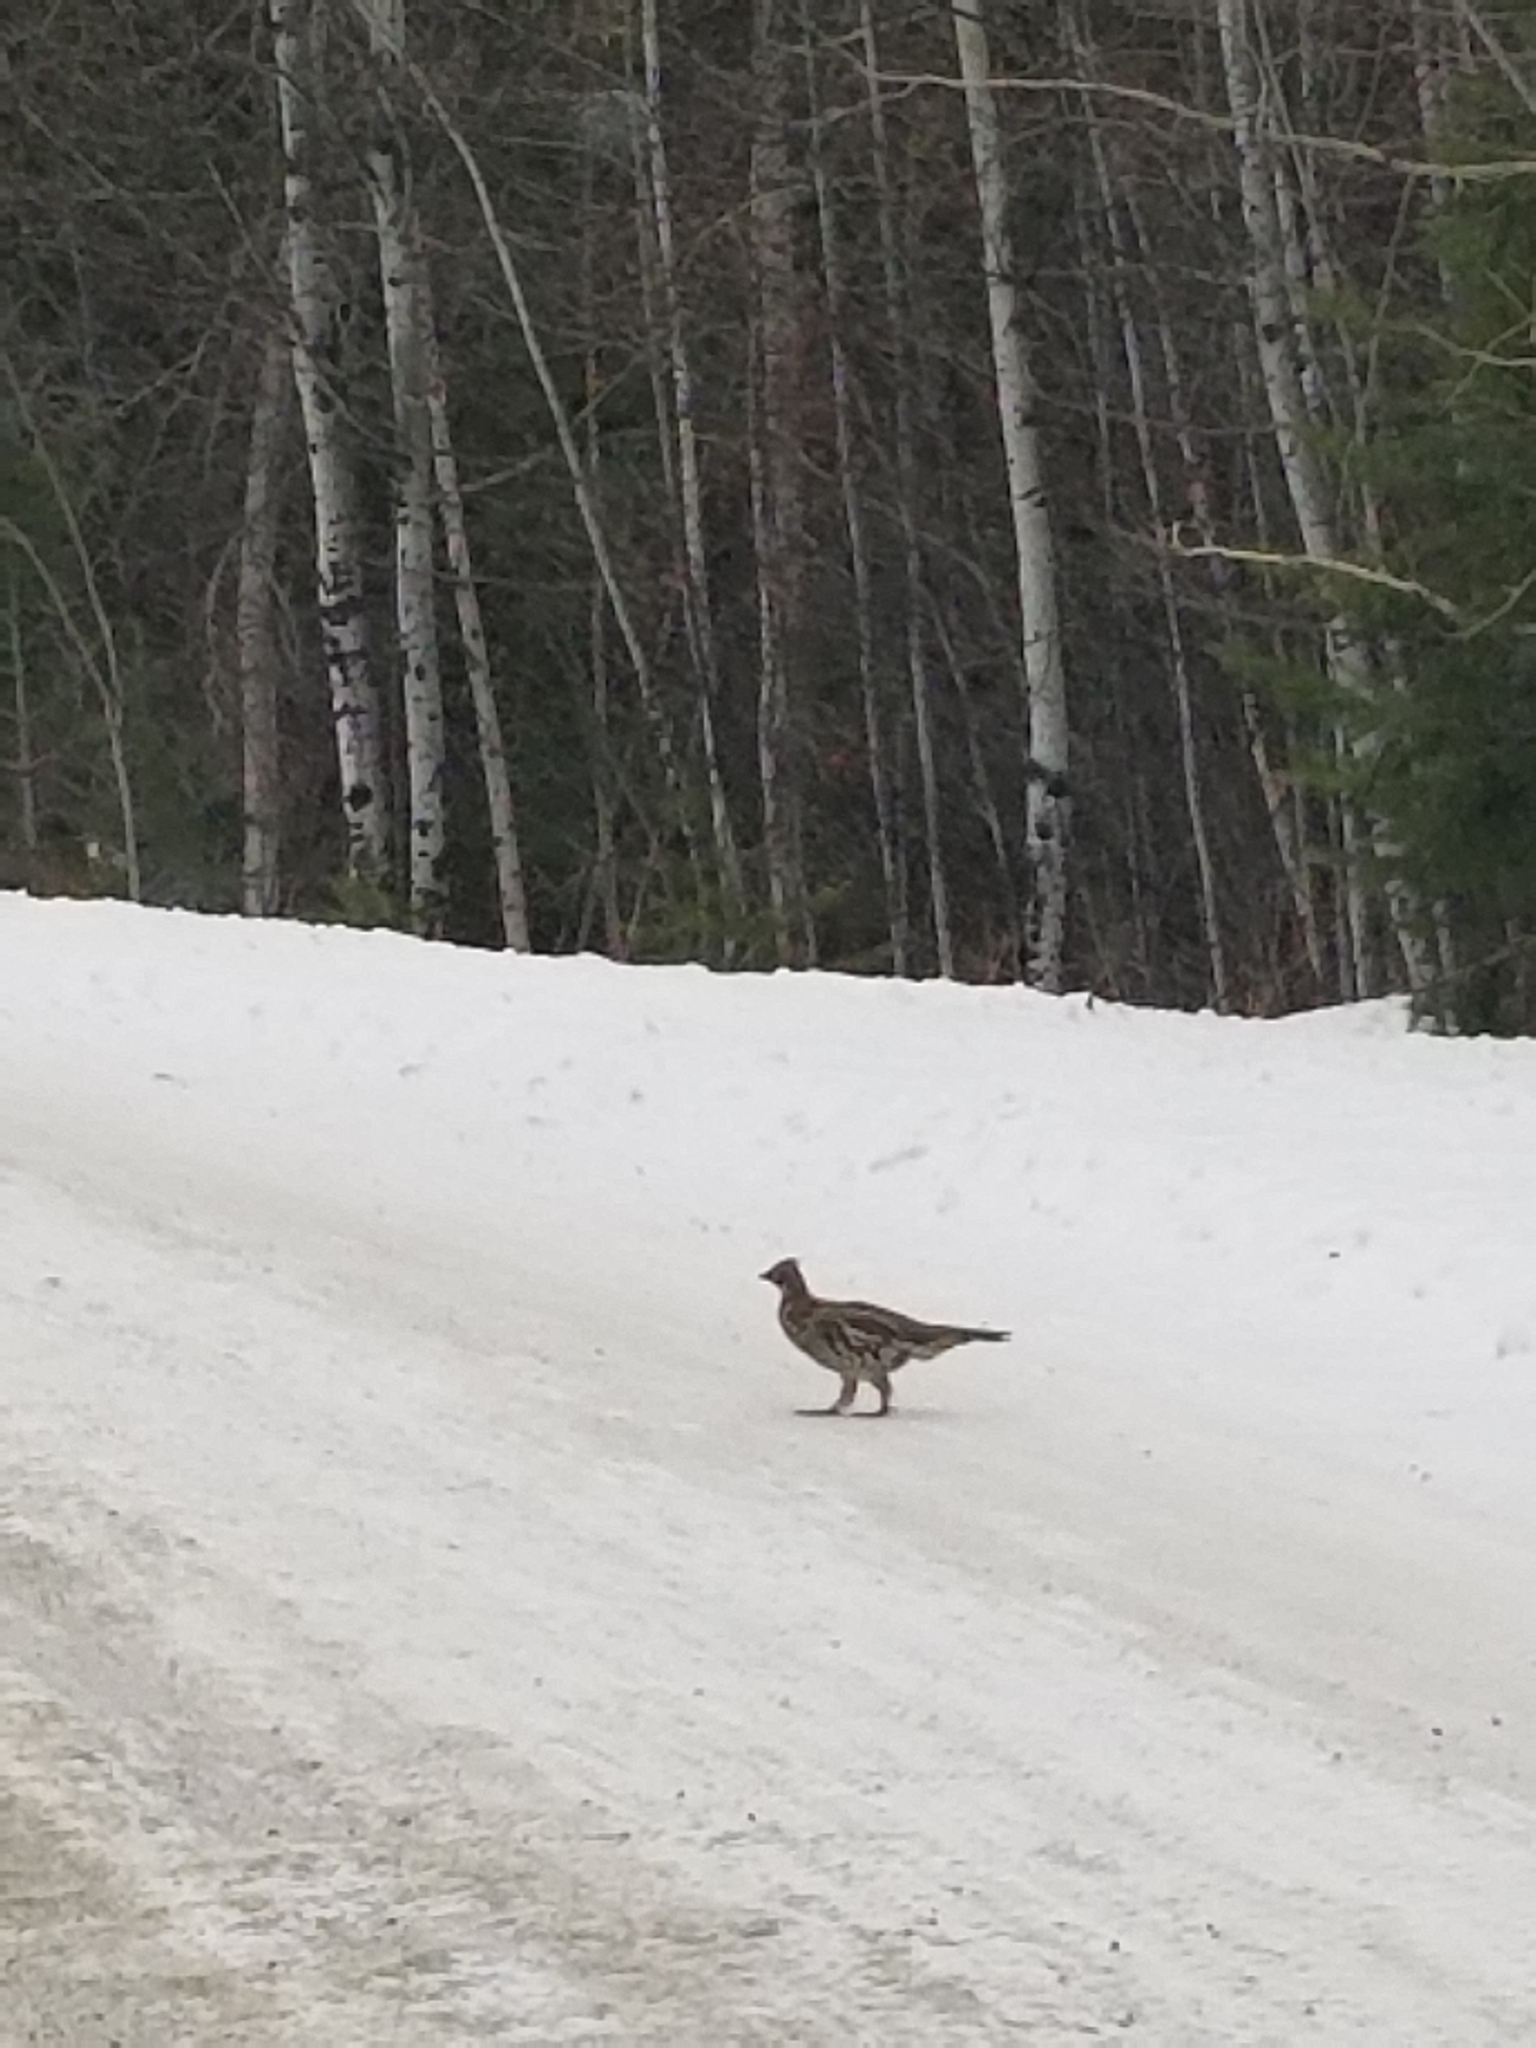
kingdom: Animalia
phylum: Chordata
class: Aves
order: Galliformes
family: Phasianidae
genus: Bonasa
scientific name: Bonasa umbellus
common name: Ruffed grouse
